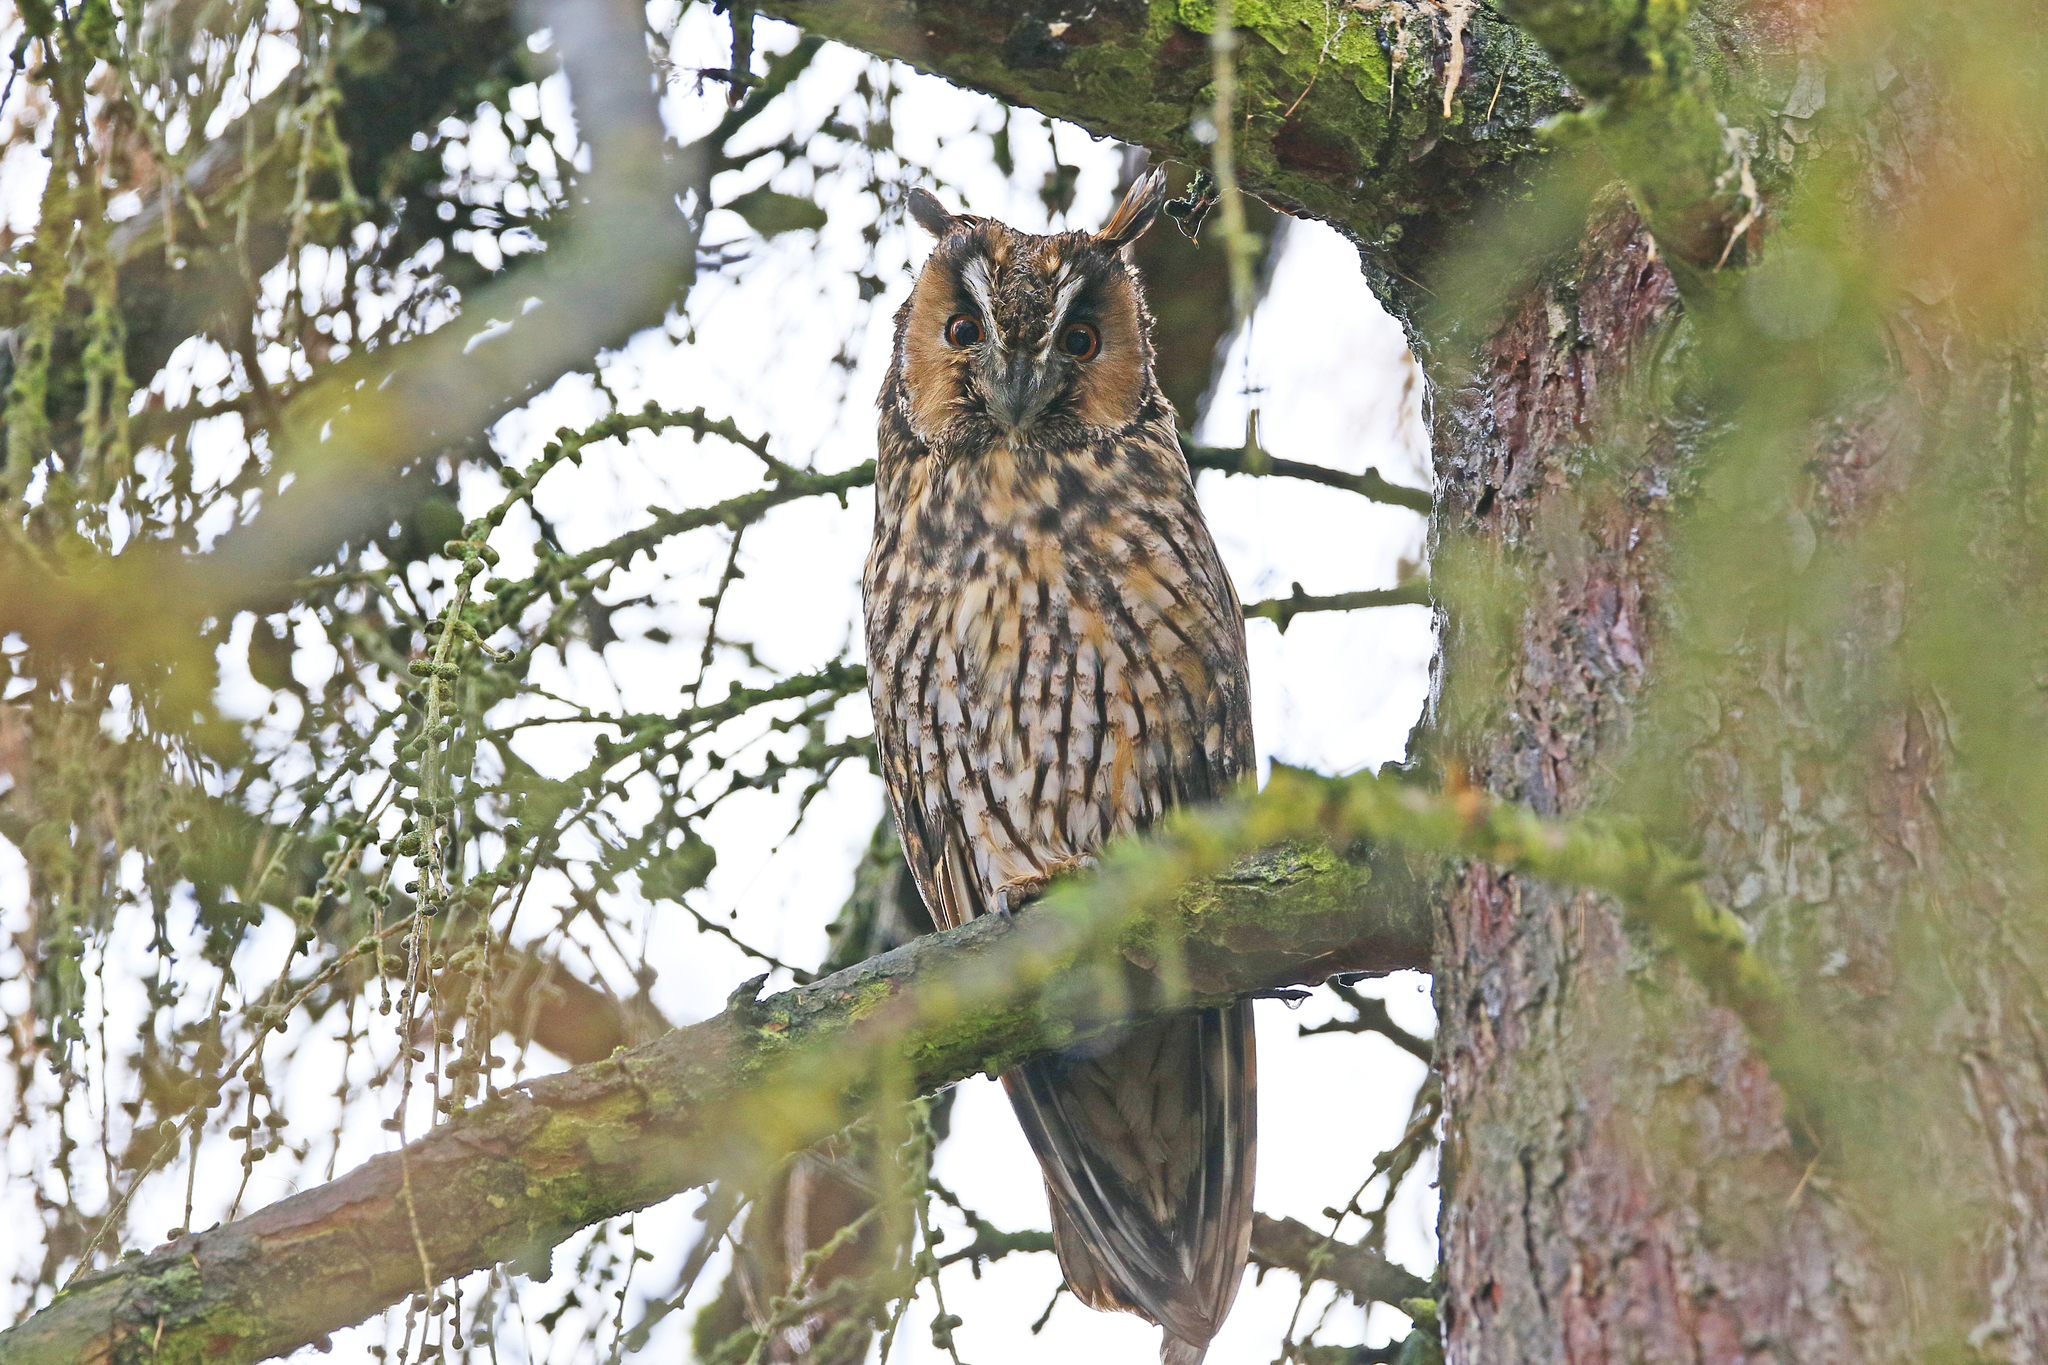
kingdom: Animalia
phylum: Chordata
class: Aves
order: Strigiformes
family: Strigidae
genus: Asio
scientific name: Asio otus
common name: Long-eared owl
